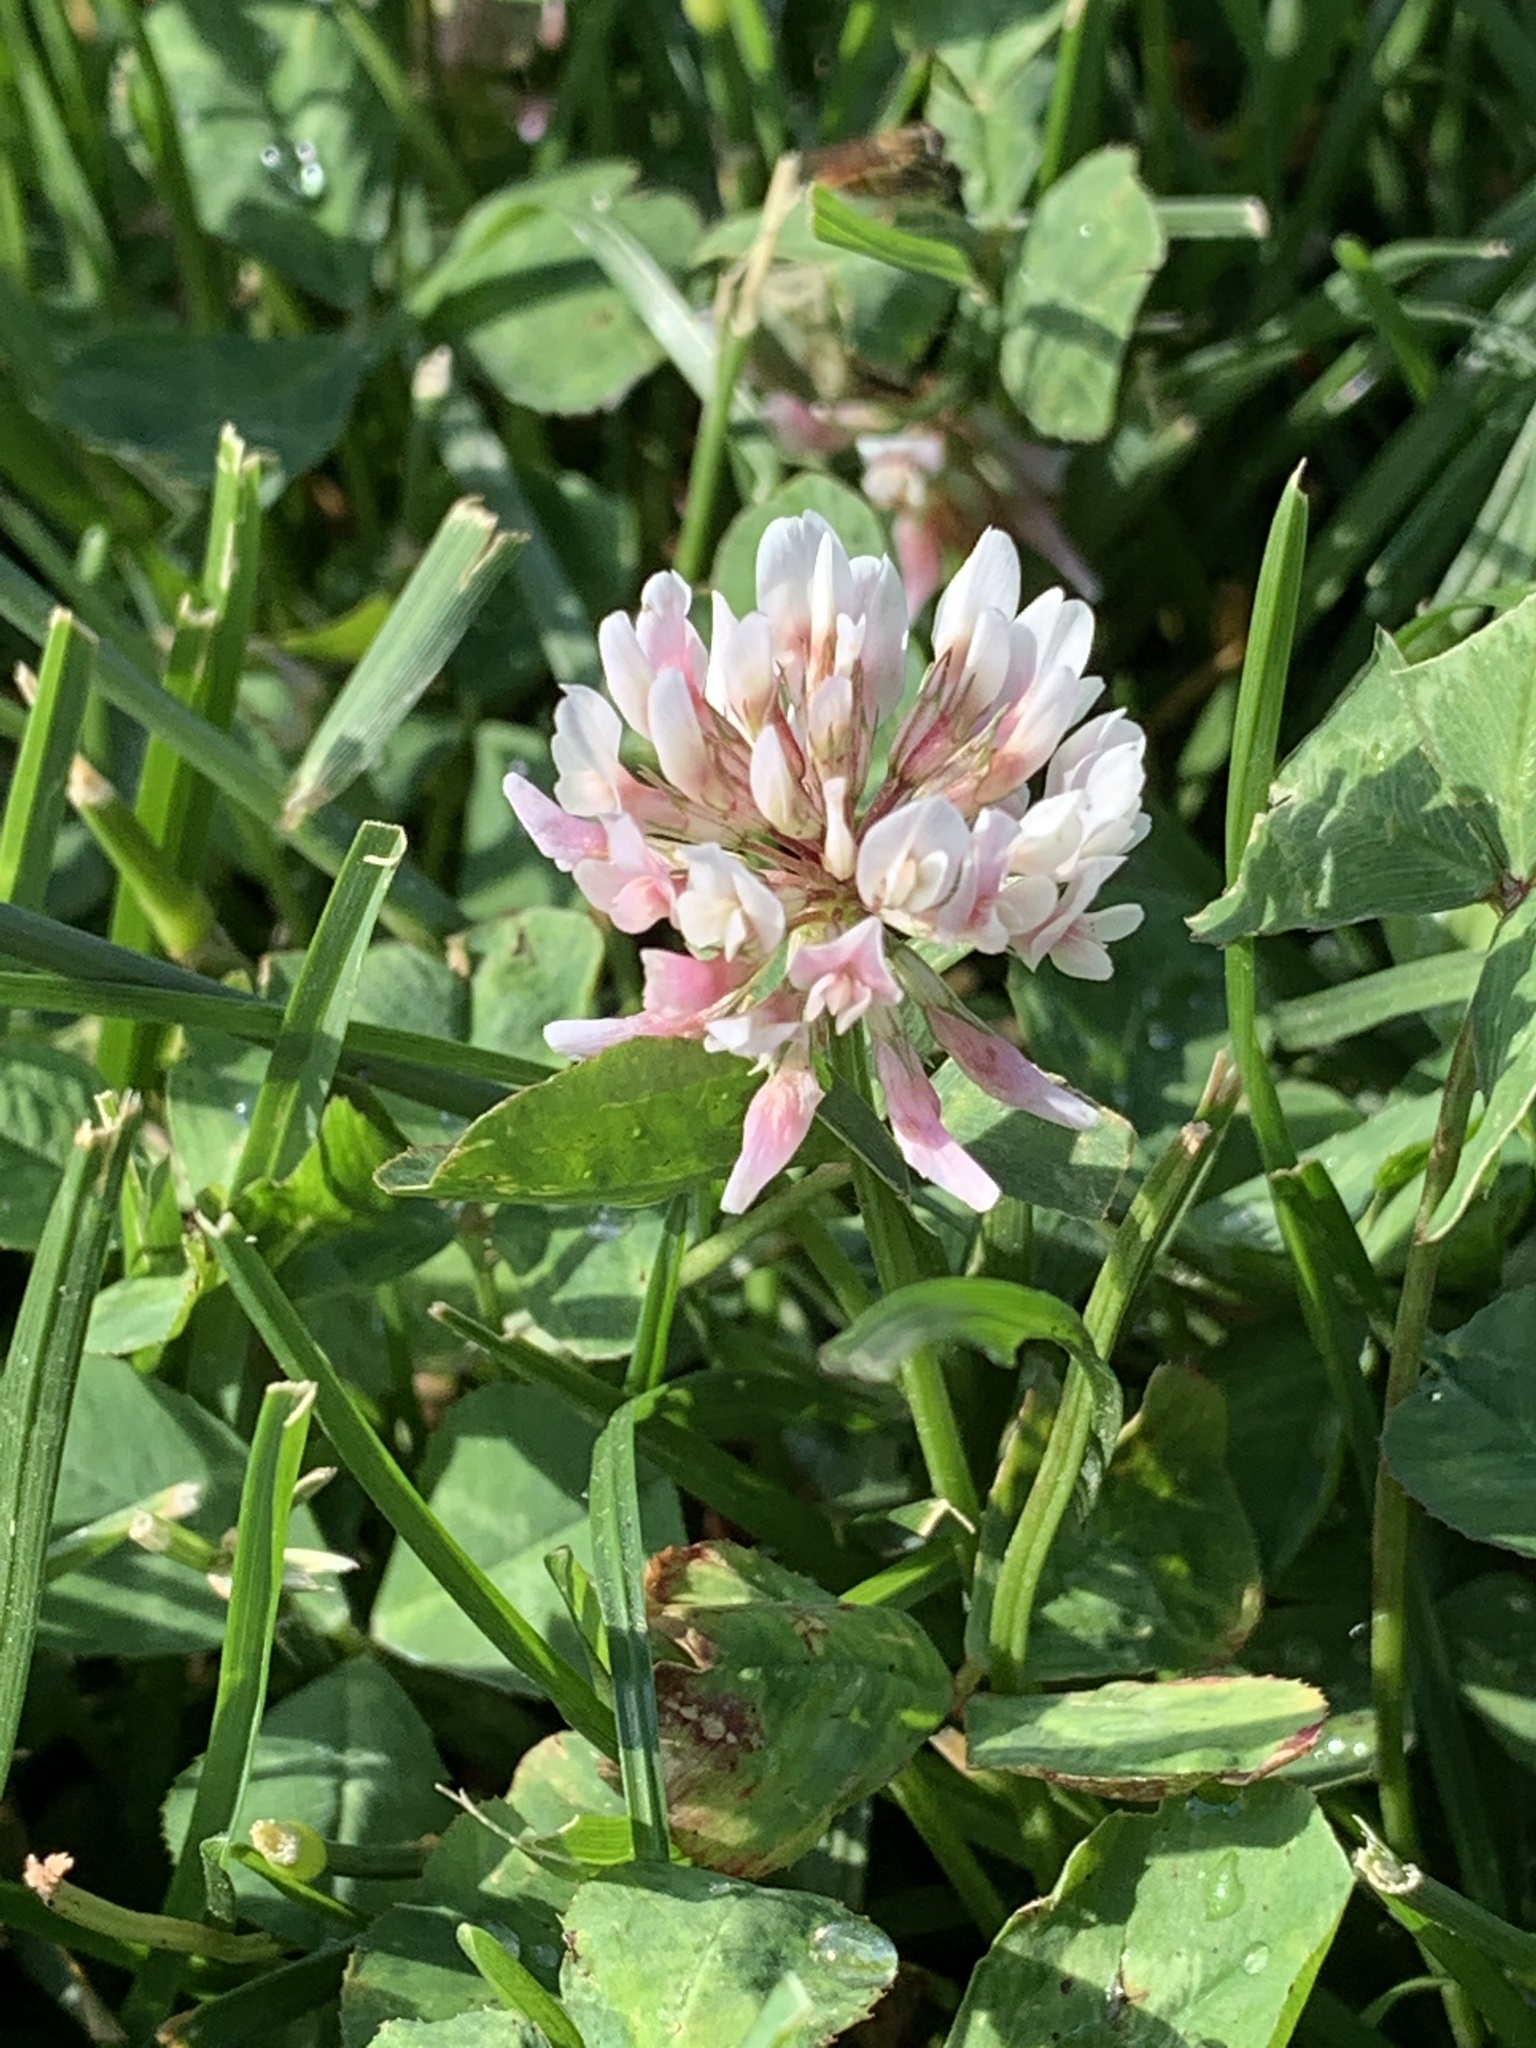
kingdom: Plantae
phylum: Tracheophyta
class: Magnoliopsida
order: Fabales
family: Fabaceae
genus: Trifolium
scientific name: Trifolium repens
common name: White clover
